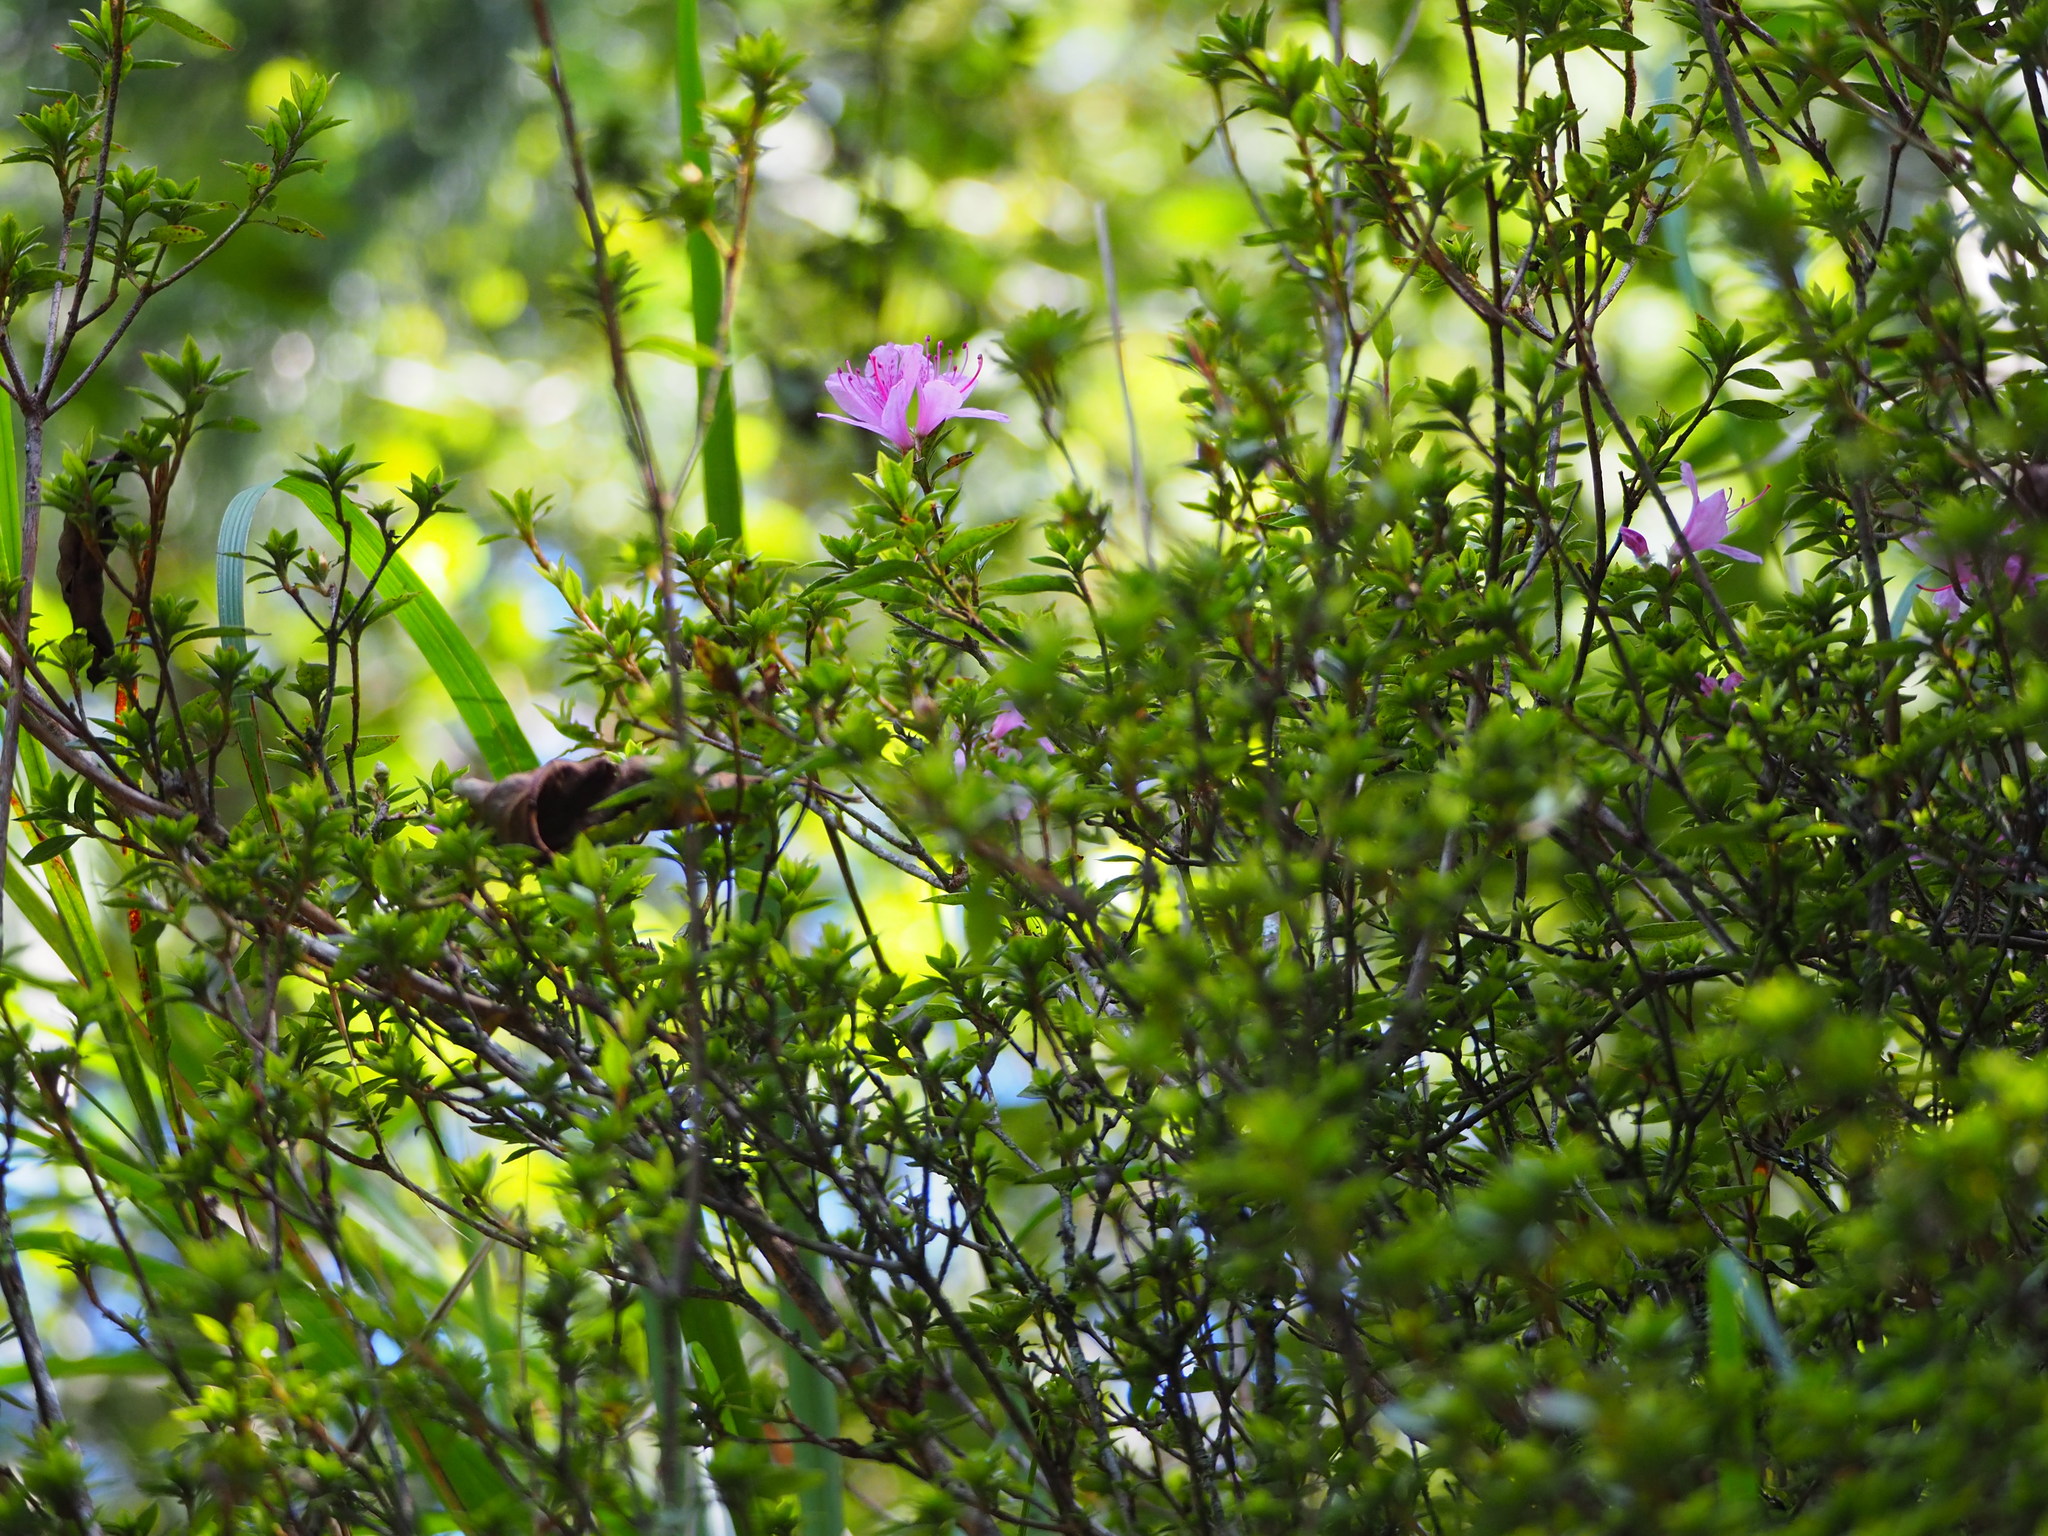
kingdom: Plantae
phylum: Tracheophyta
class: Magnoliopsida
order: Ericales
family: Ericaceae
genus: Rhododendron
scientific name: Rhododendron noriakianum
